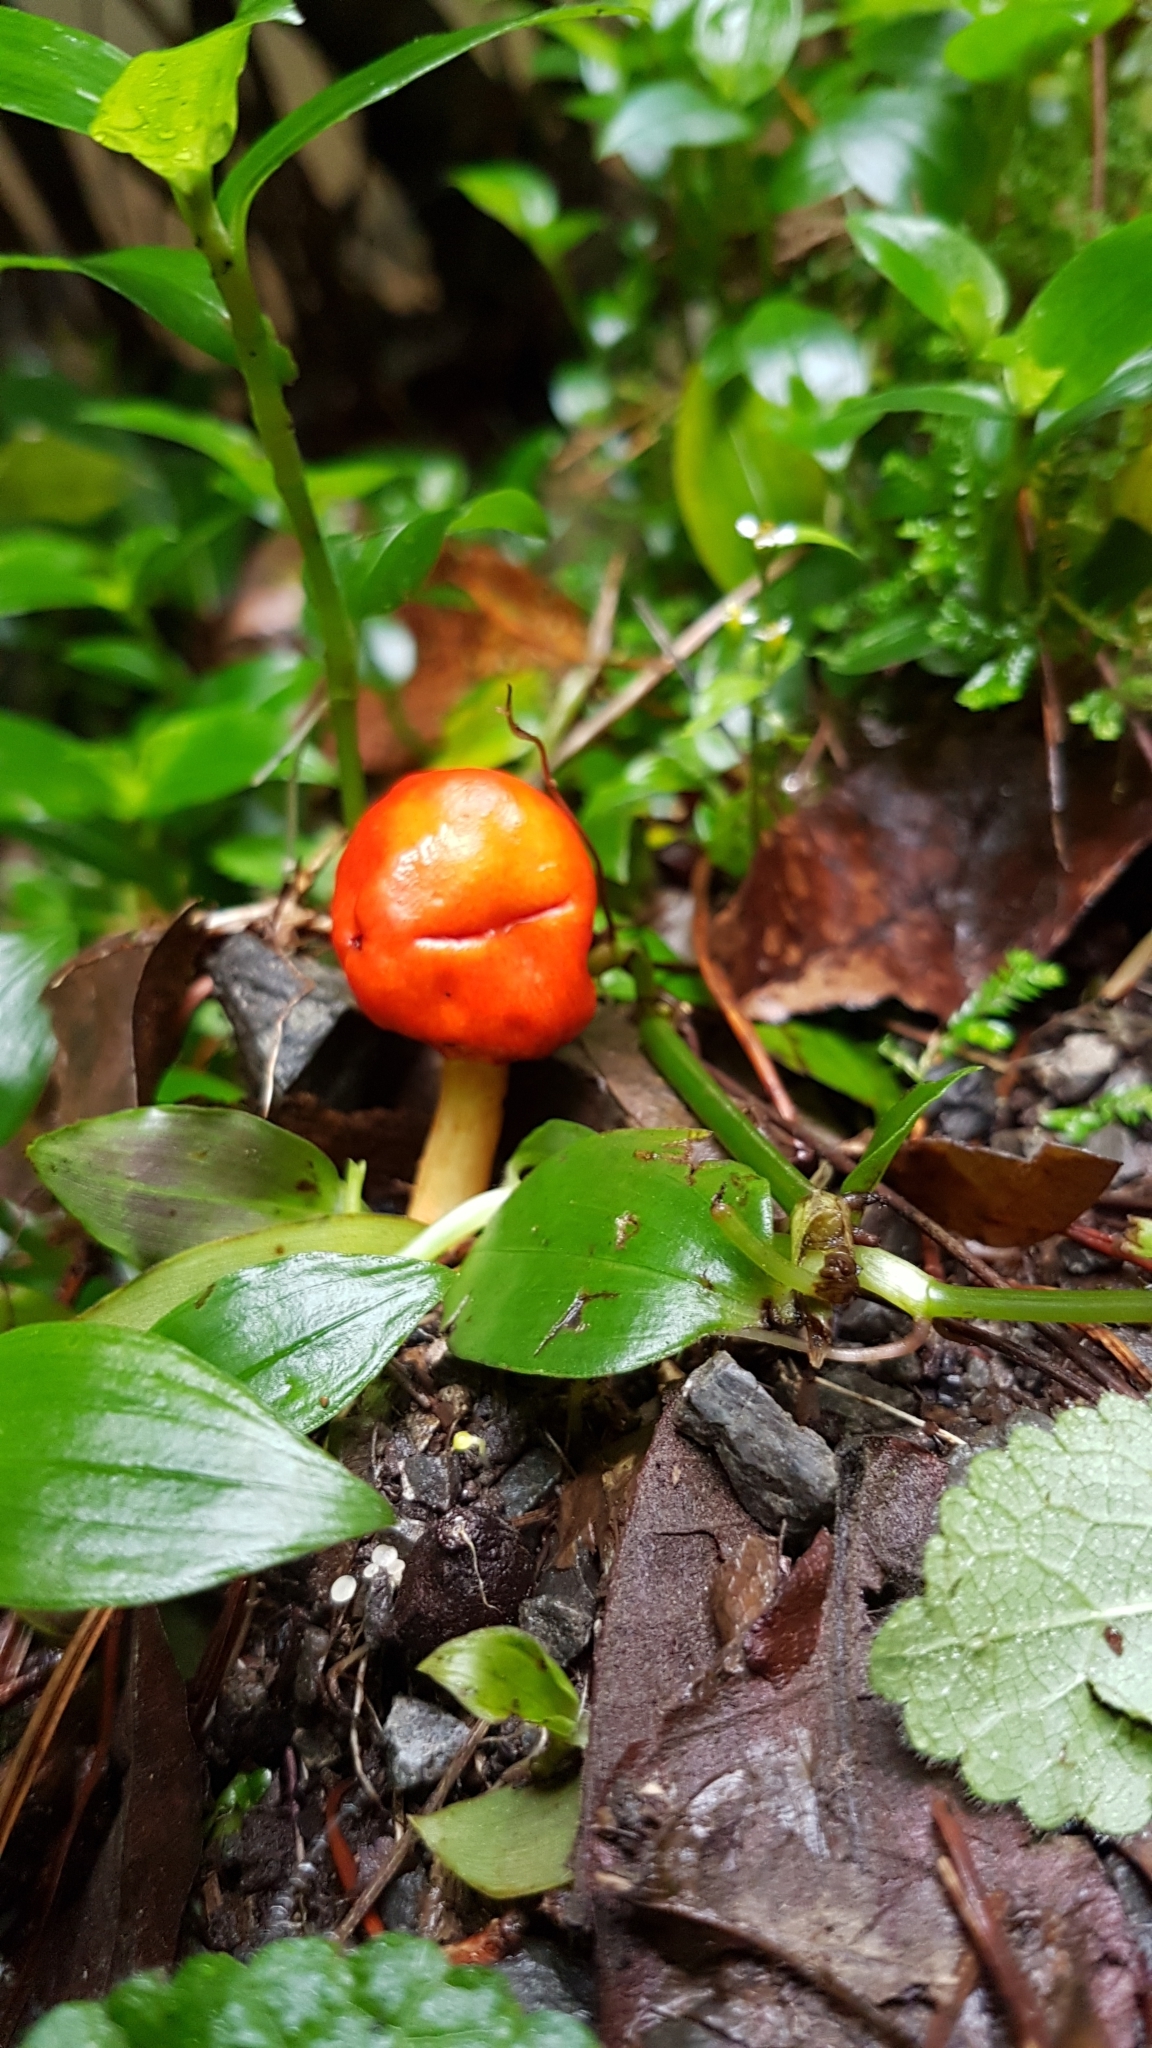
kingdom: Fungi
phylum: Basidiomycota
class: Agaricomycetes
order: Agaricales
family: Strophariaceae
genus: Leratiomyces
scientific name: Leratiomyces erythrocephalus
